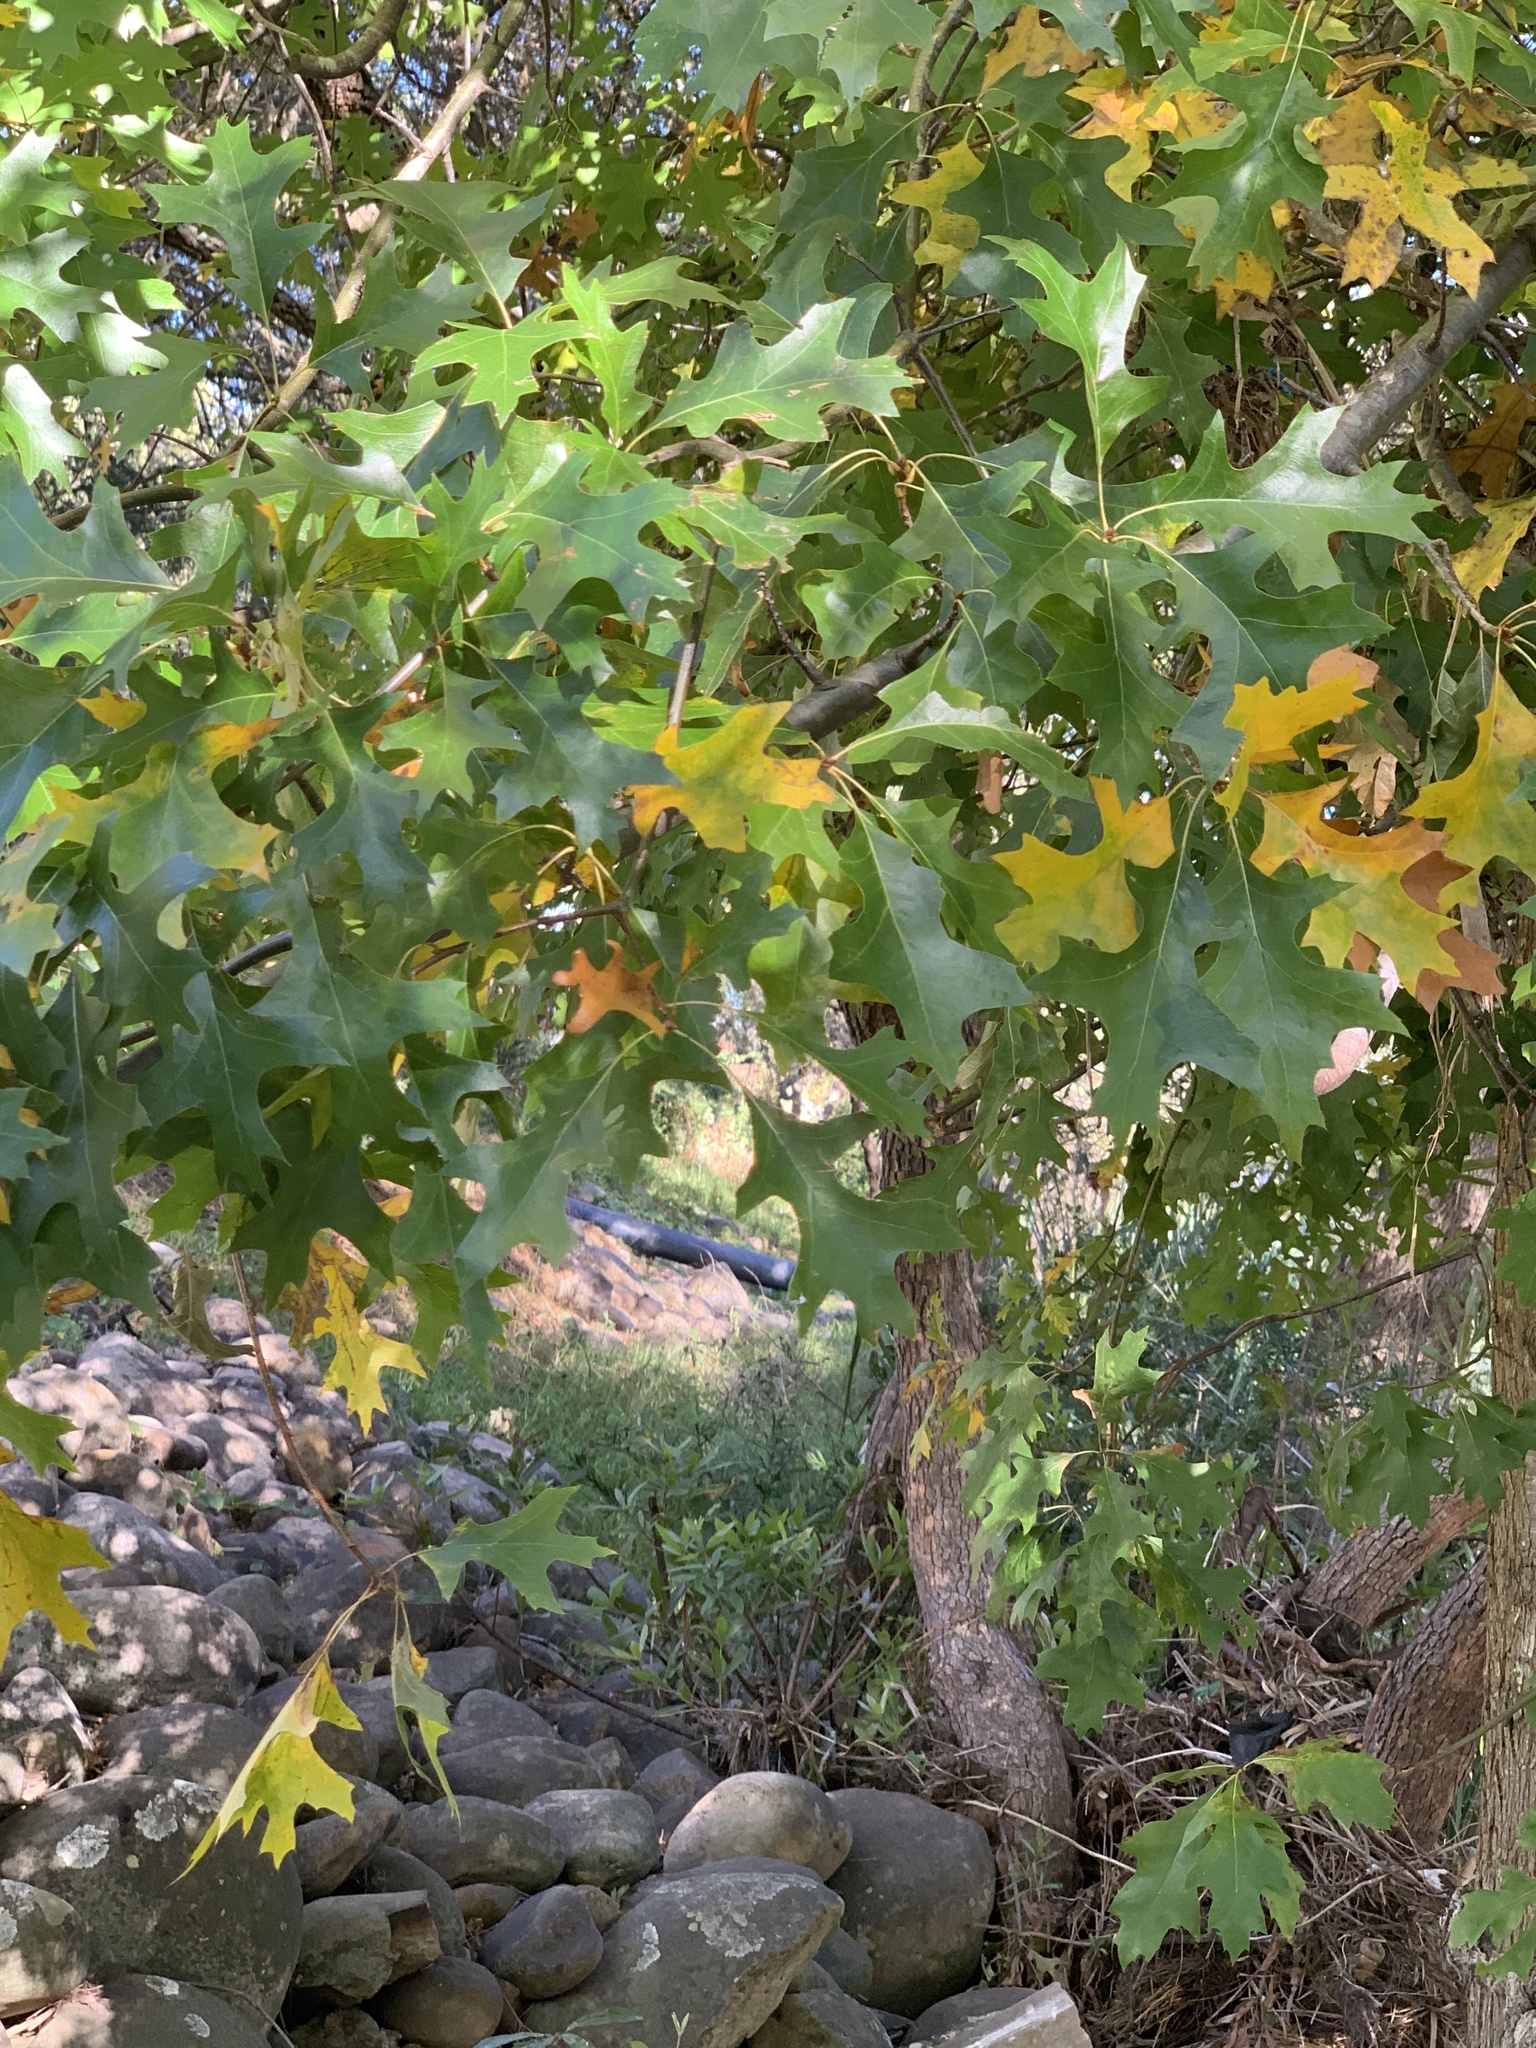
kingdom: Plantae
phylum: Tracheophyta
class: Magnoliopsida
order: Fagales
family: Fagaceae
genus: Quercus
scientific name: Quercus palustris
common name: Pin oak
